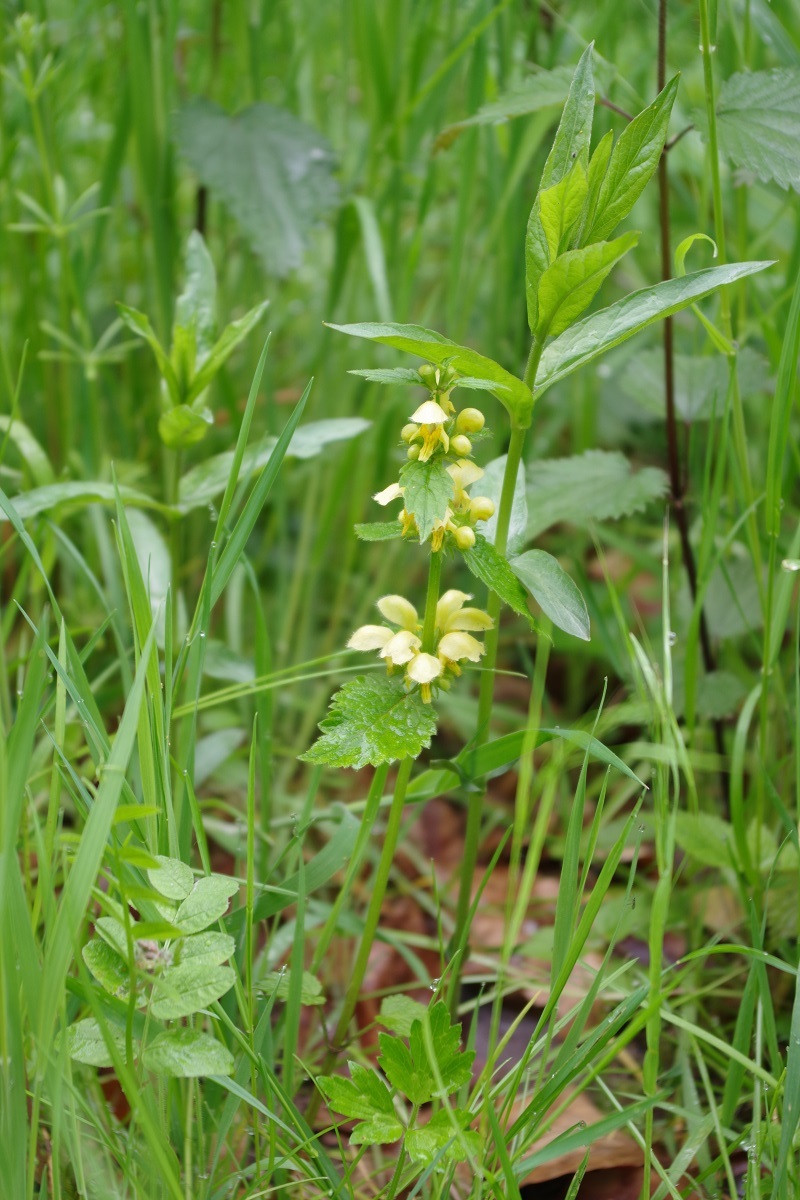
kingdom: Plantae
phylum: Tracheophyta
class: Magnoliopsida
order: Lamiales
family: Lamiaceae
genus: Lamium
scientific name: Lamium galeobdolon
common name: Yellow archangel
